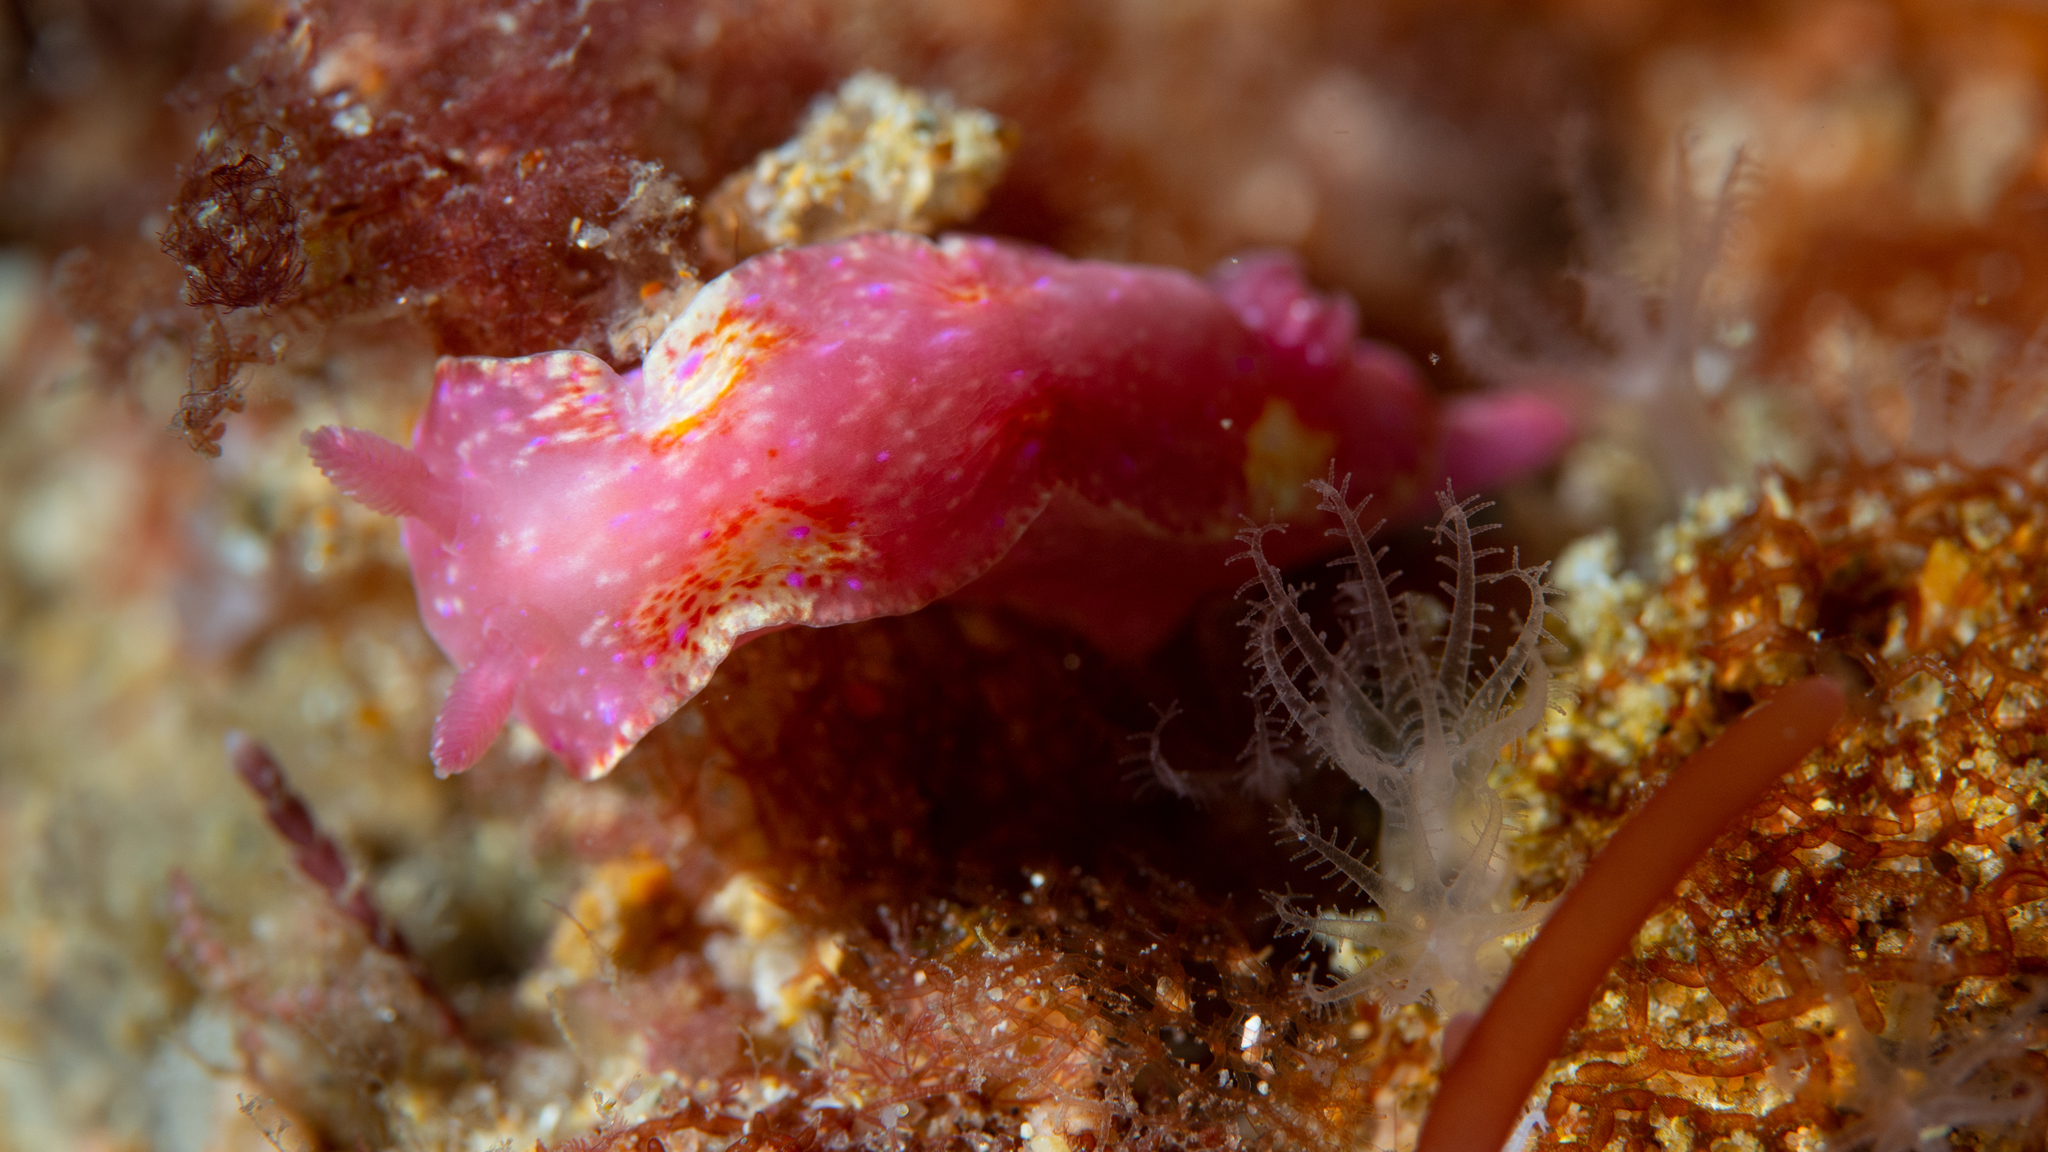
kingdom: Animalia
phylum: Mollusca
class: Gastropoda
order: Nudibranchia
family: Chromodorididae
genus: Thorunna
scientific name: Thorunna arbuta
